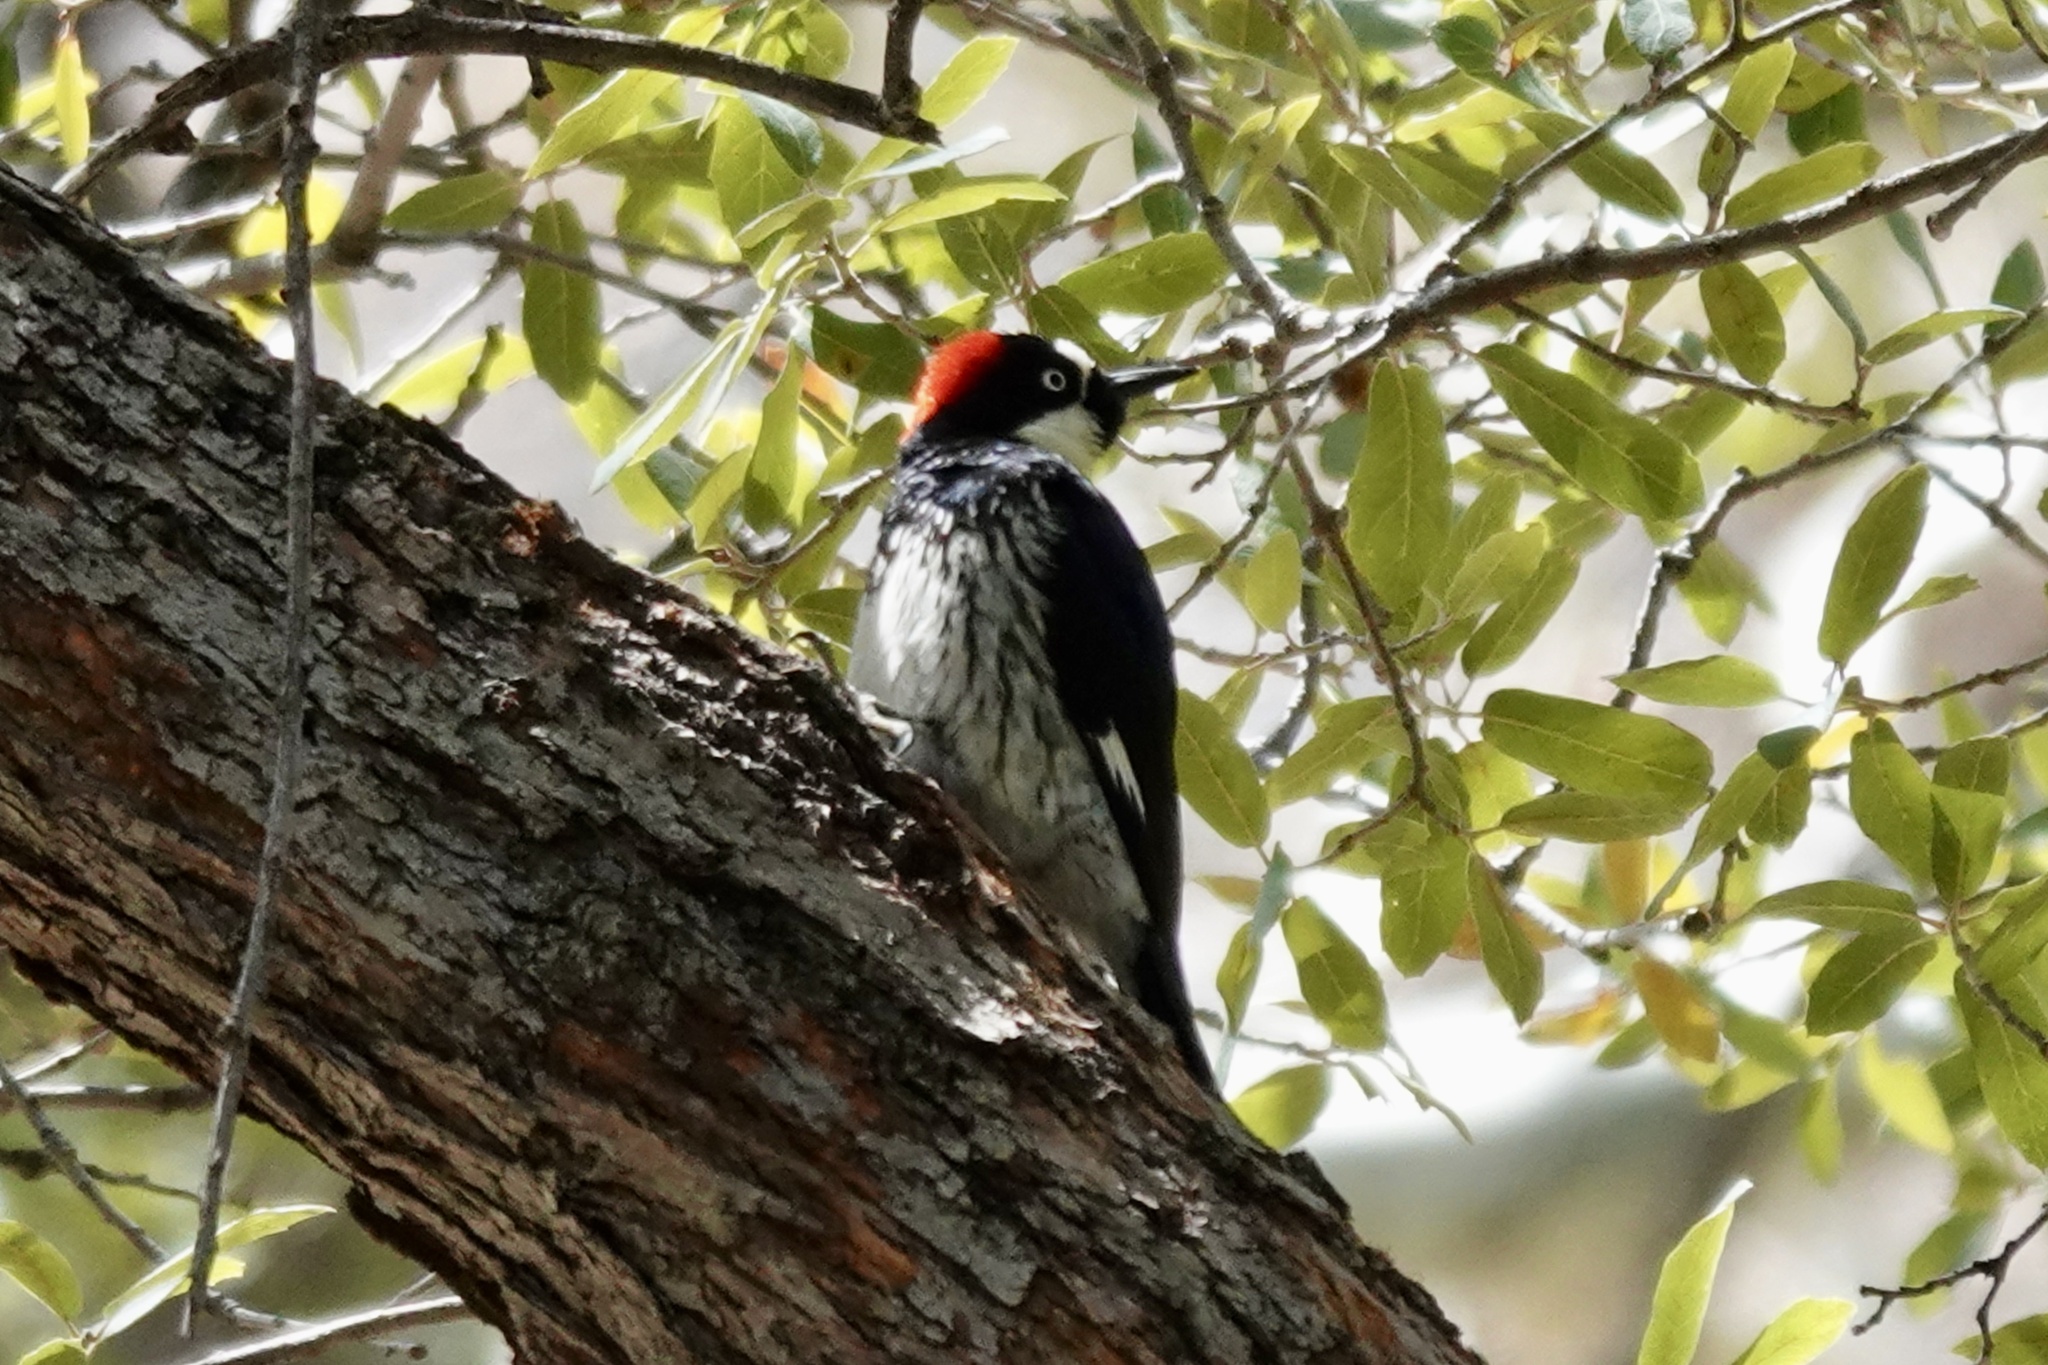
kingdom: Animalia
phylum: Chordata
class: Aves
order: Piciformes
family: Picidae
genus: Melanerpes
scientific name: Melanerpes formicivorus
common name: Acorn woodpecker
